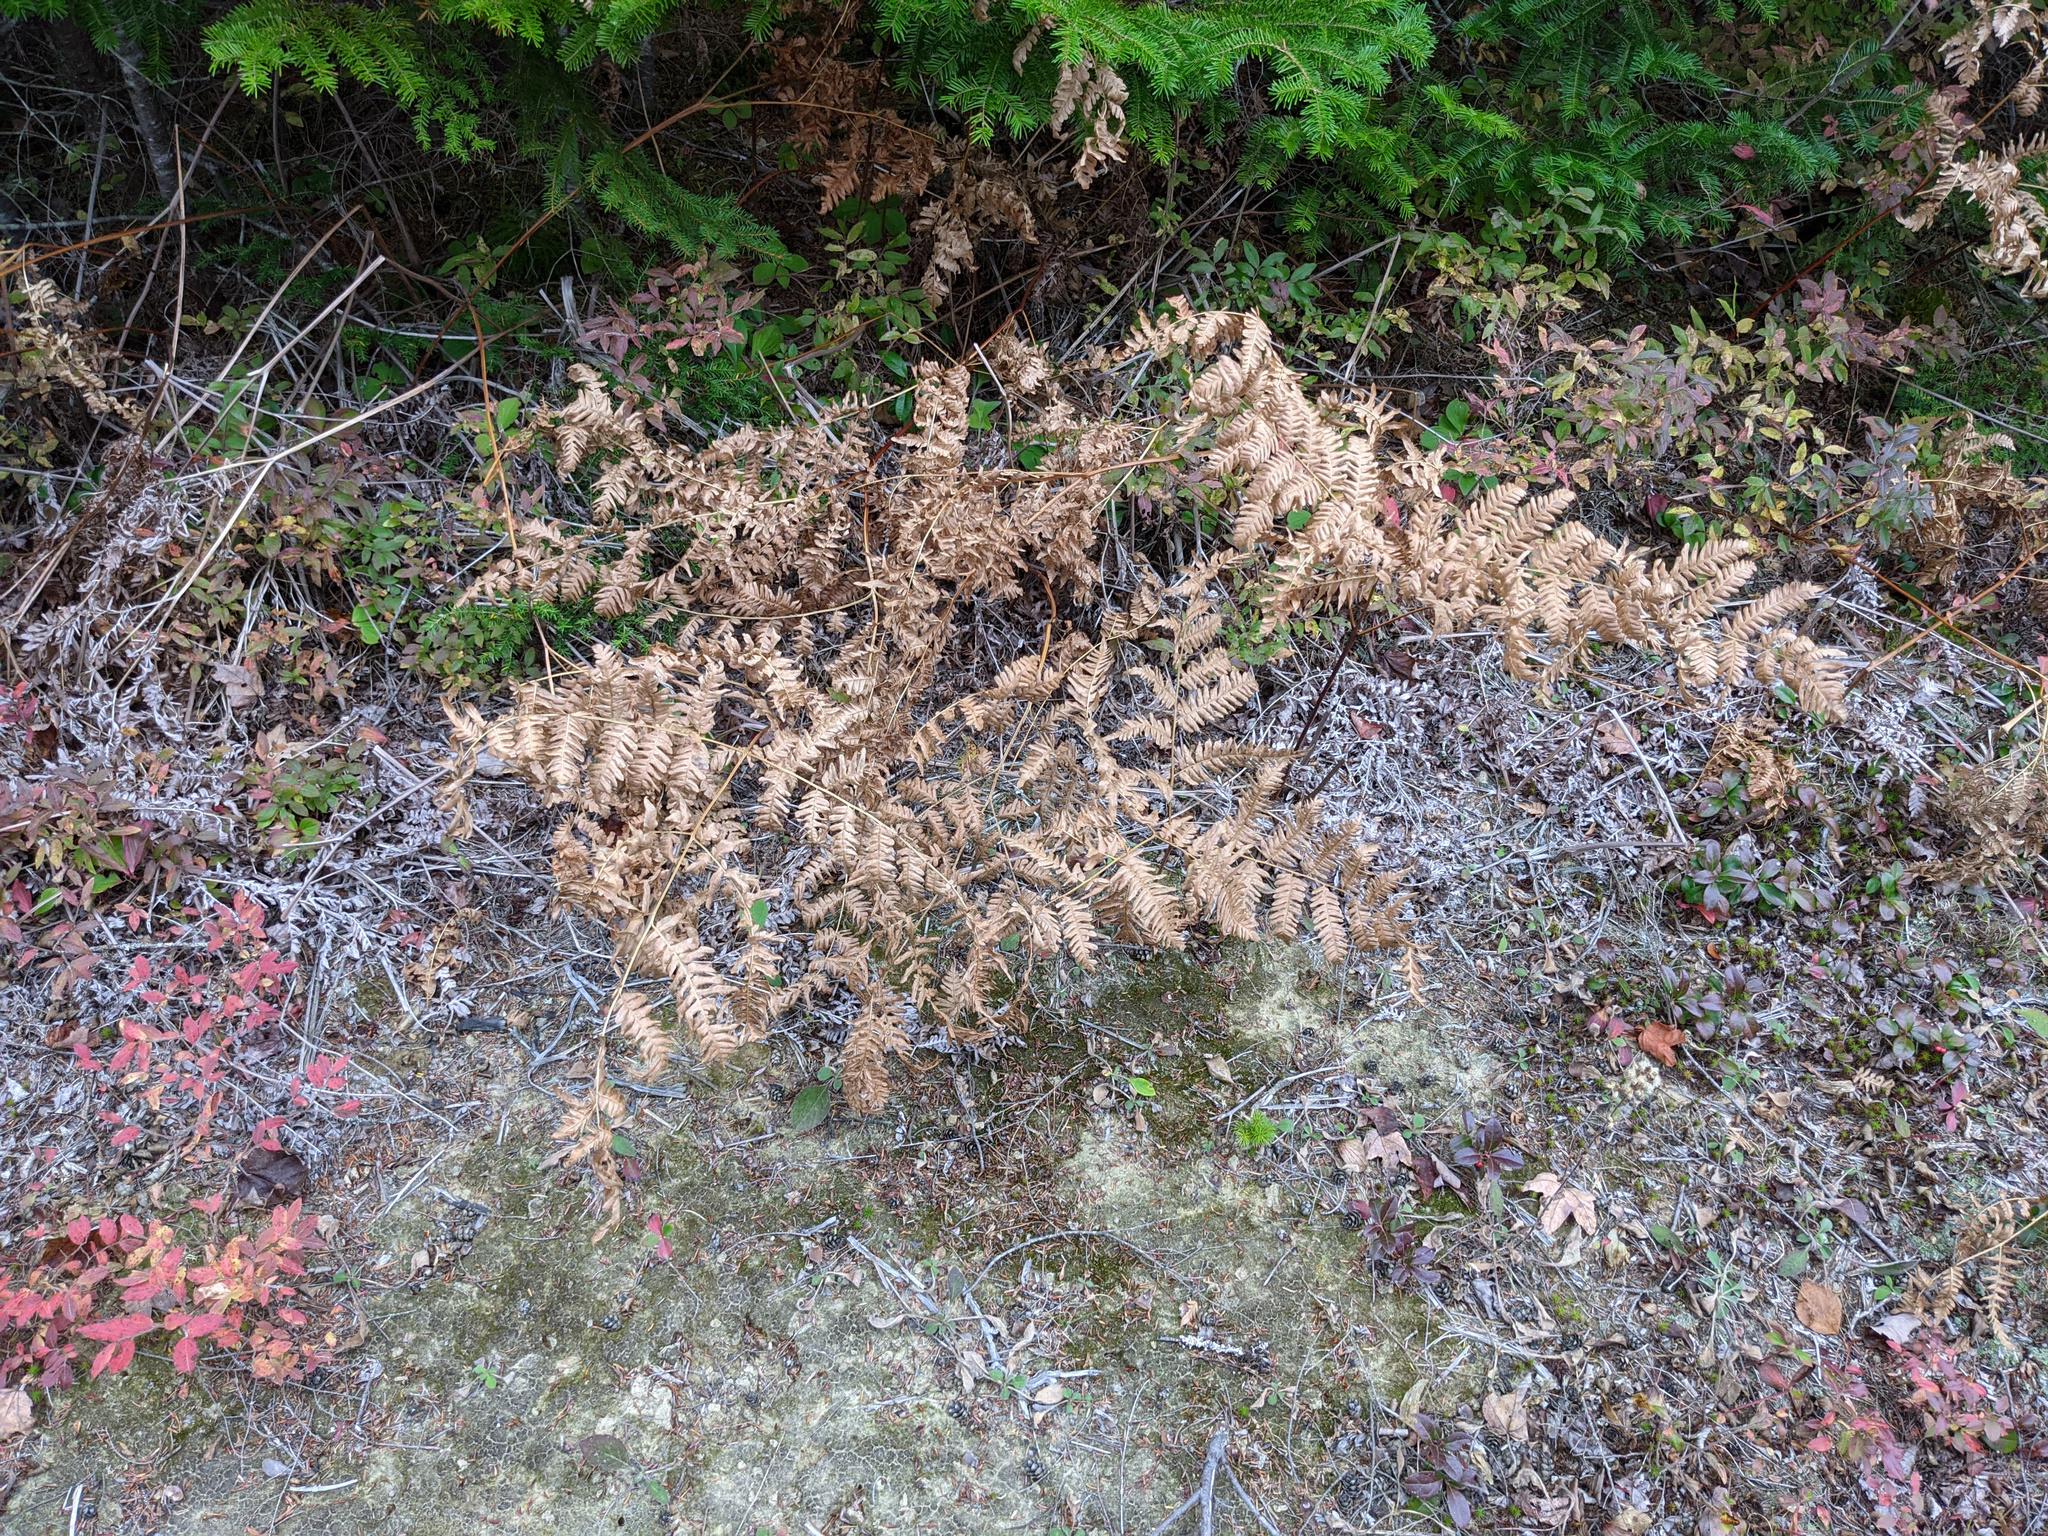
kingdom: Plantae
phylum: Tracheophyta
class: Polypodiopsida
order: Polypodiales
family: Dennstaedtiaceae
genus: Pteridium
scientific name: Pteridium aquilinum
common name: Bracken
